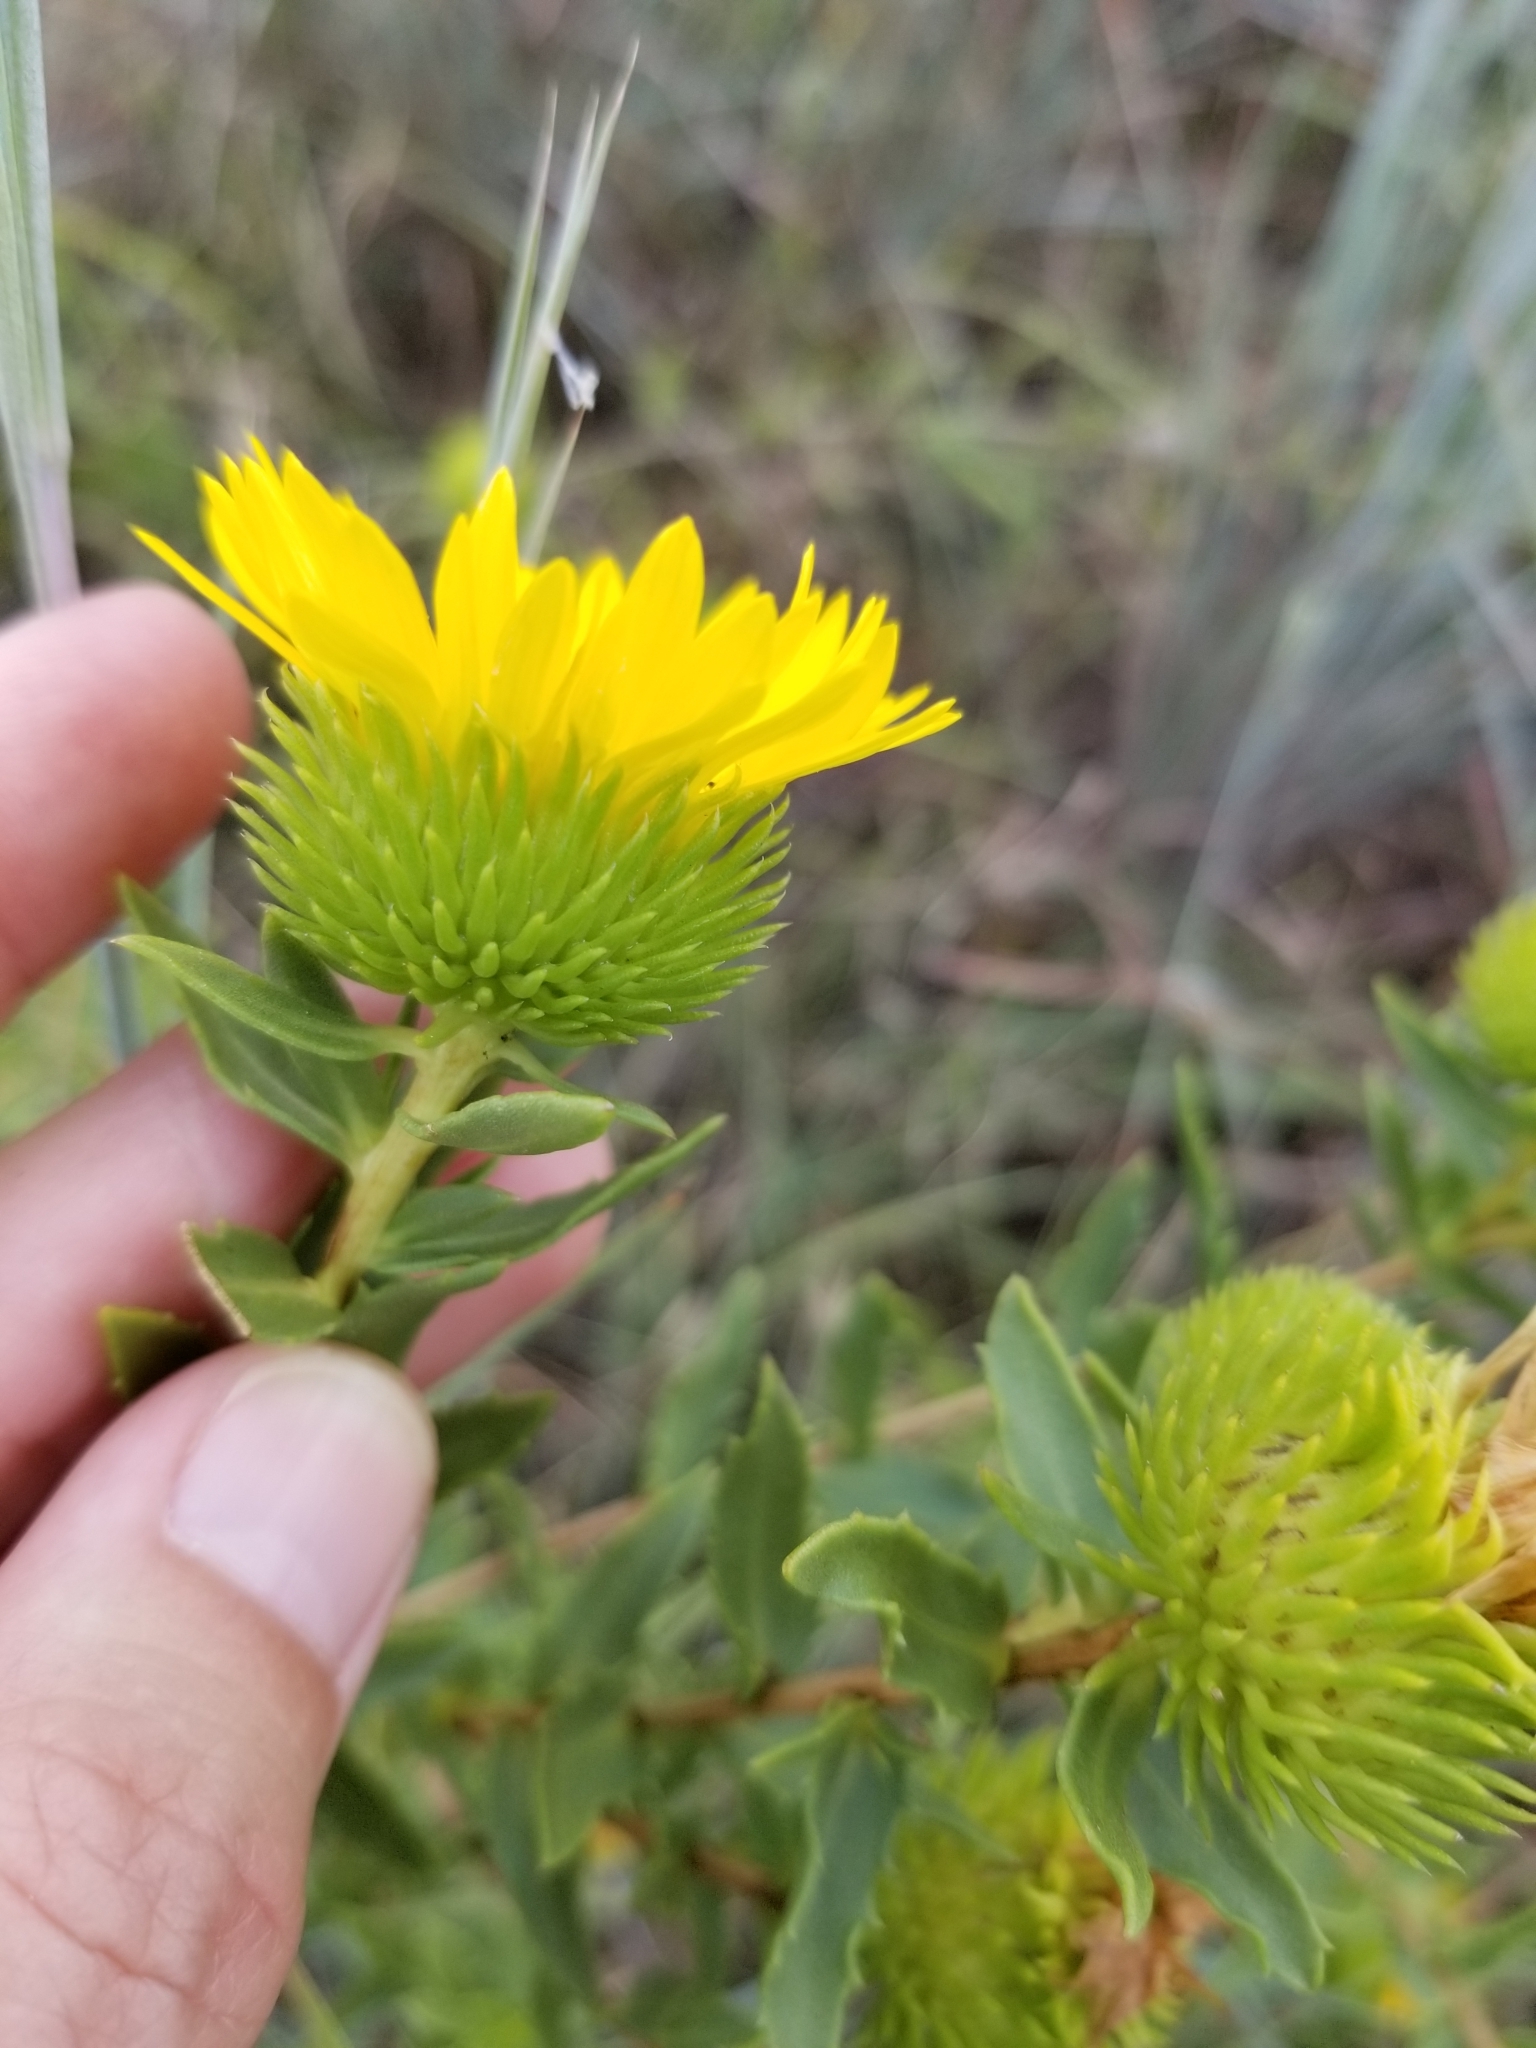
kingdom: Plantae
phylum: Tracheophyta
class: Magnoliopsida
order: Asterales
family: Asteraceae
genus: Grindelia
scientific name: Grindelia lanceolata
